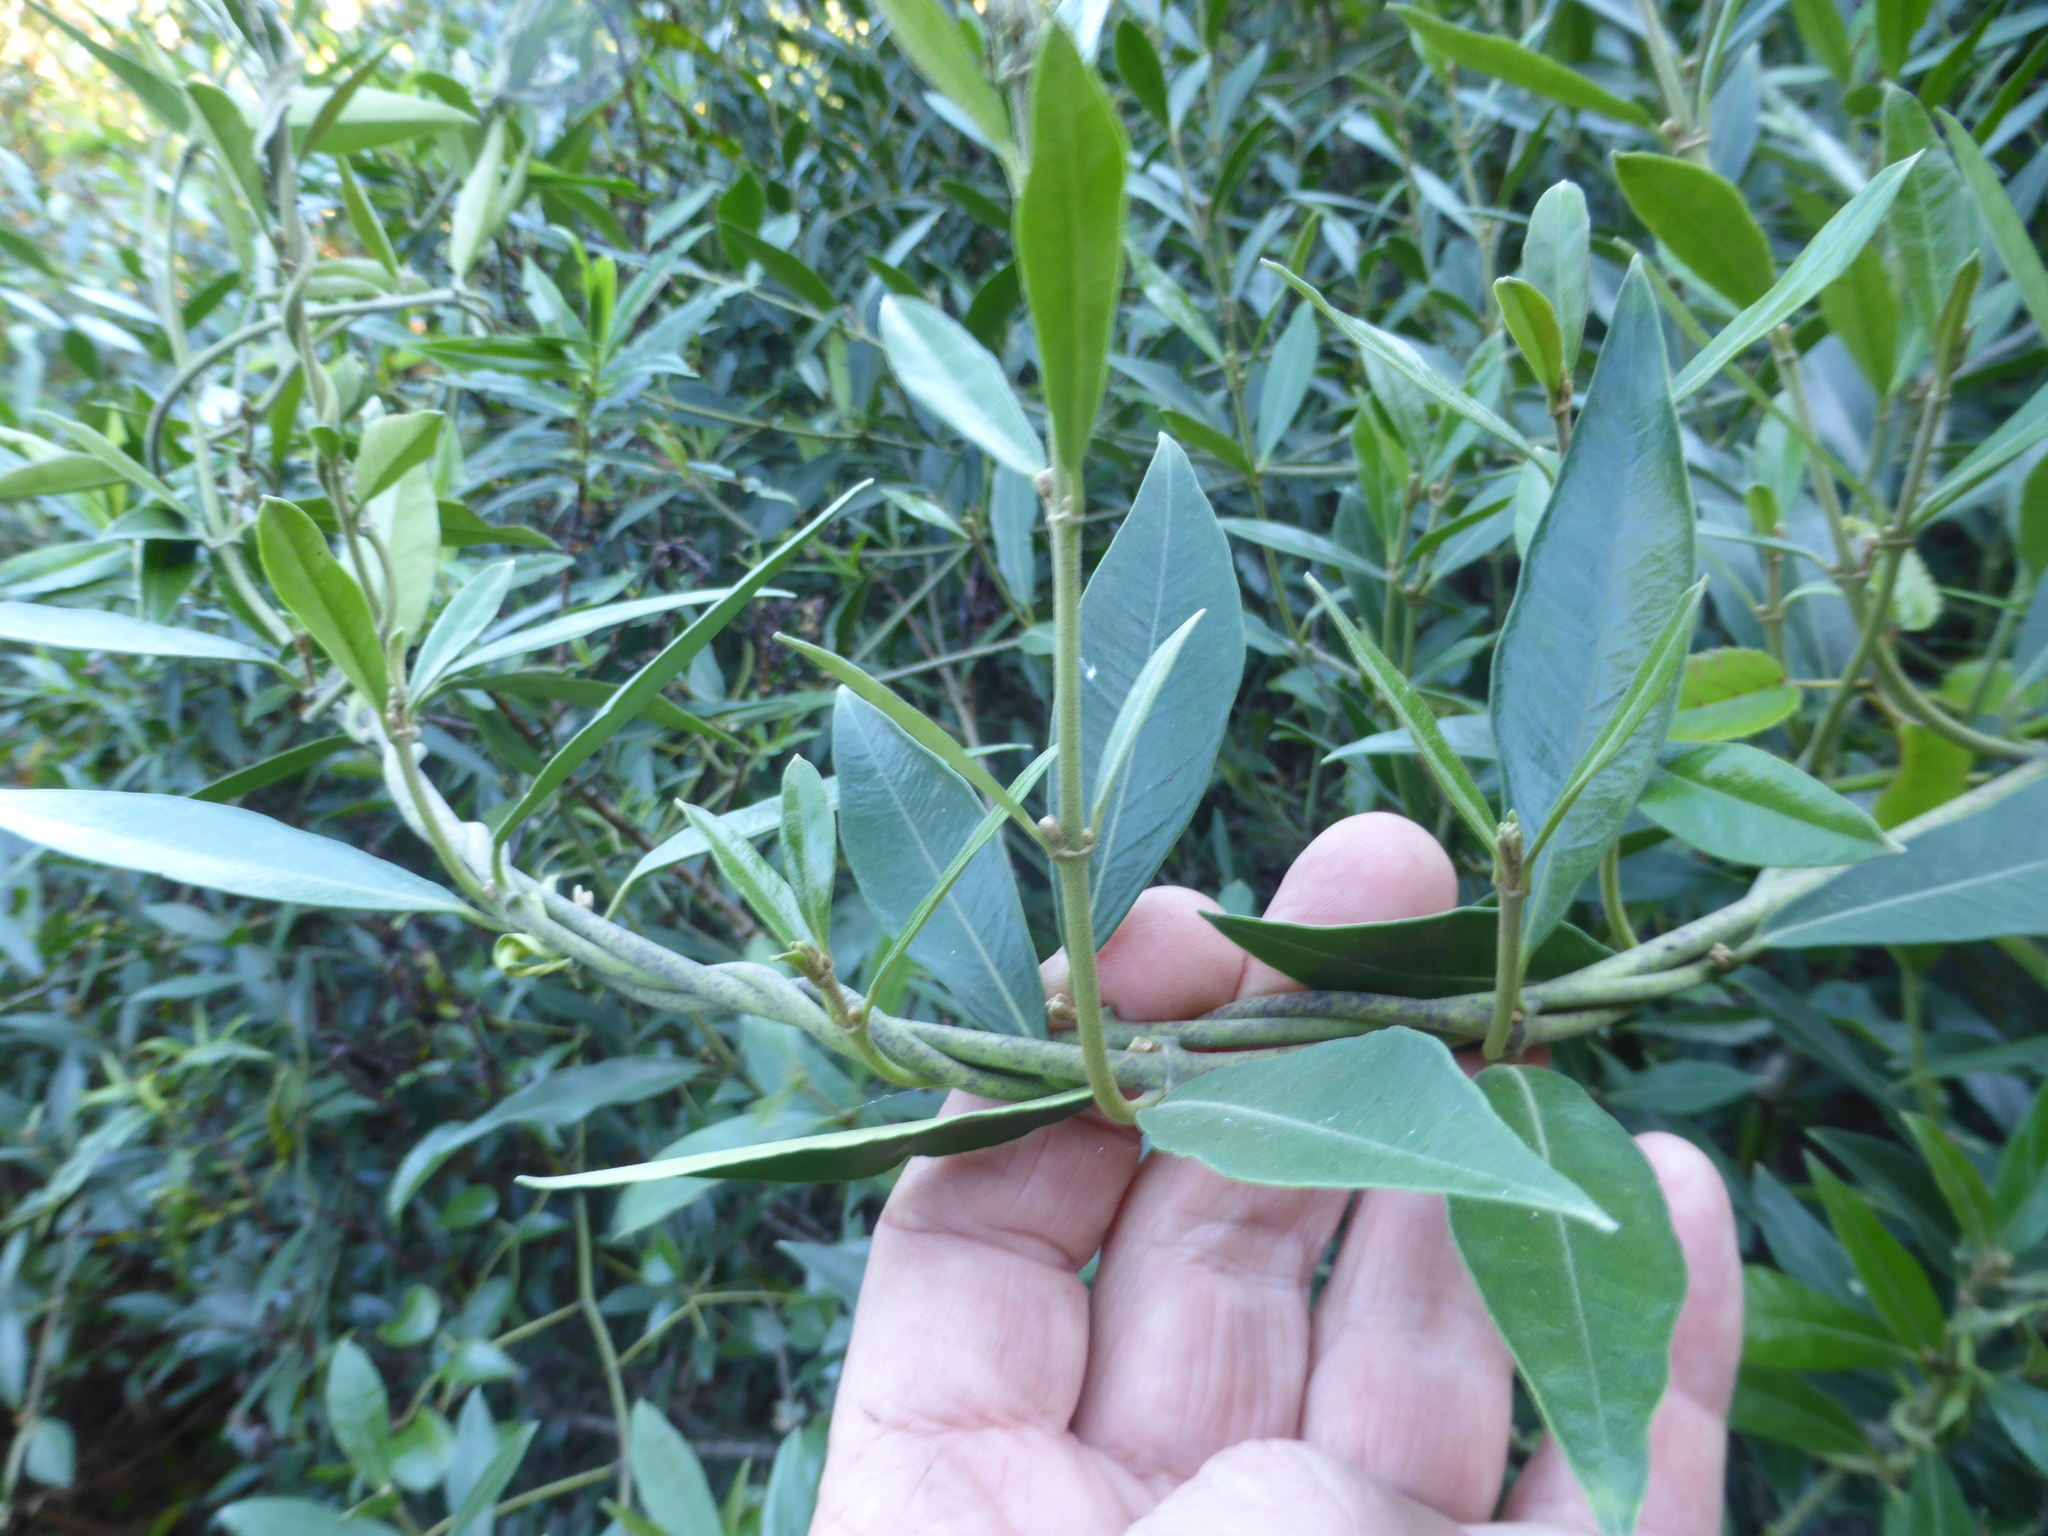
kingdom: Plantae
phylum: Tracheophyta
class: Magnoliopsida
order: Gentianales
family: Apocynaceae
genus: Parsonsia
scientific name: Parsonsia heterophylla
